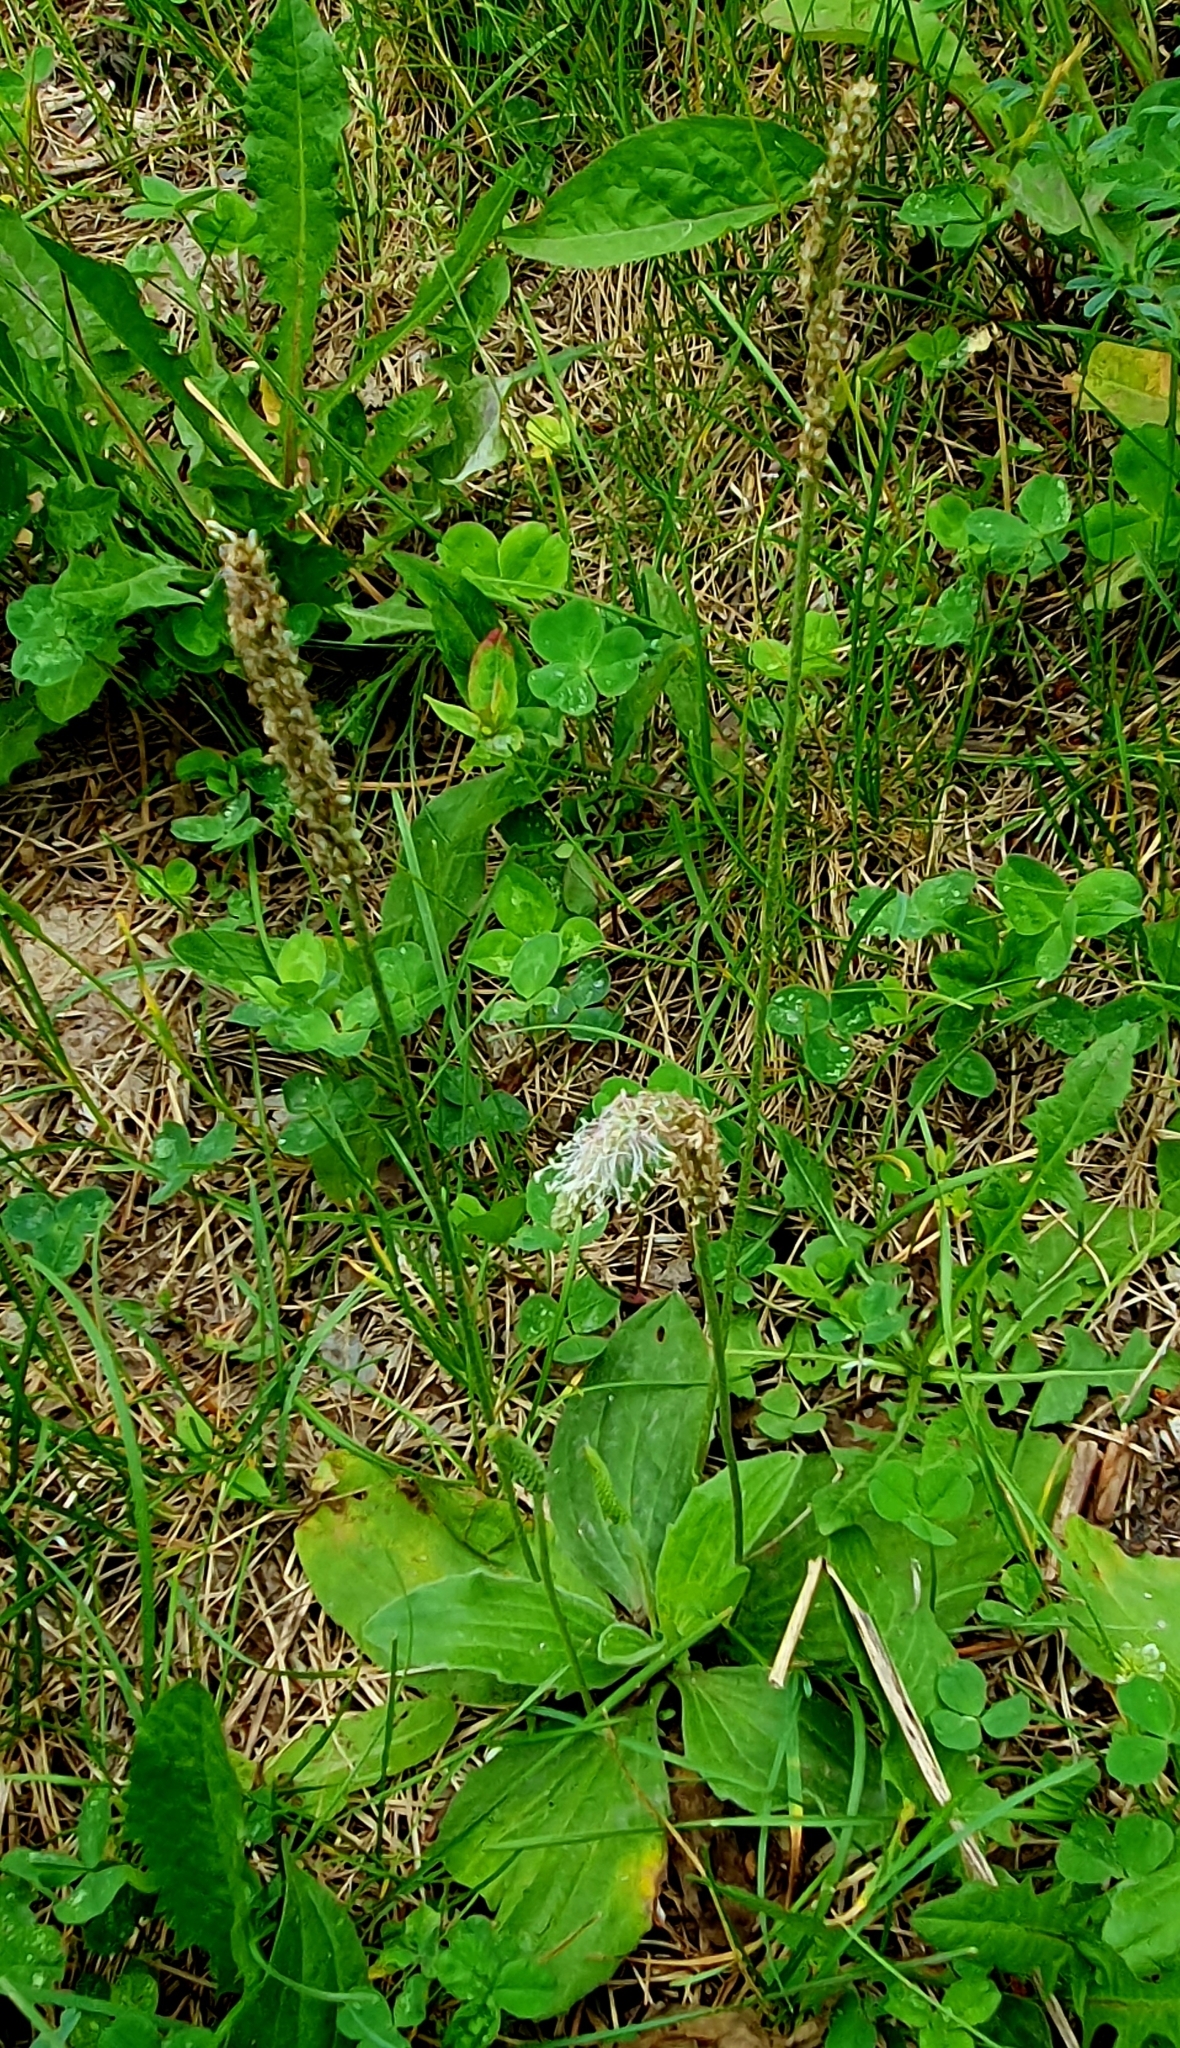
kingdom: Plantae
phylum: Tracheophyta
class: Magnoliopsida
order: Lamiales
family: Plantaginaceae
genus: Plantago
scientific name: Plantago media
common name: Hoary plantain
